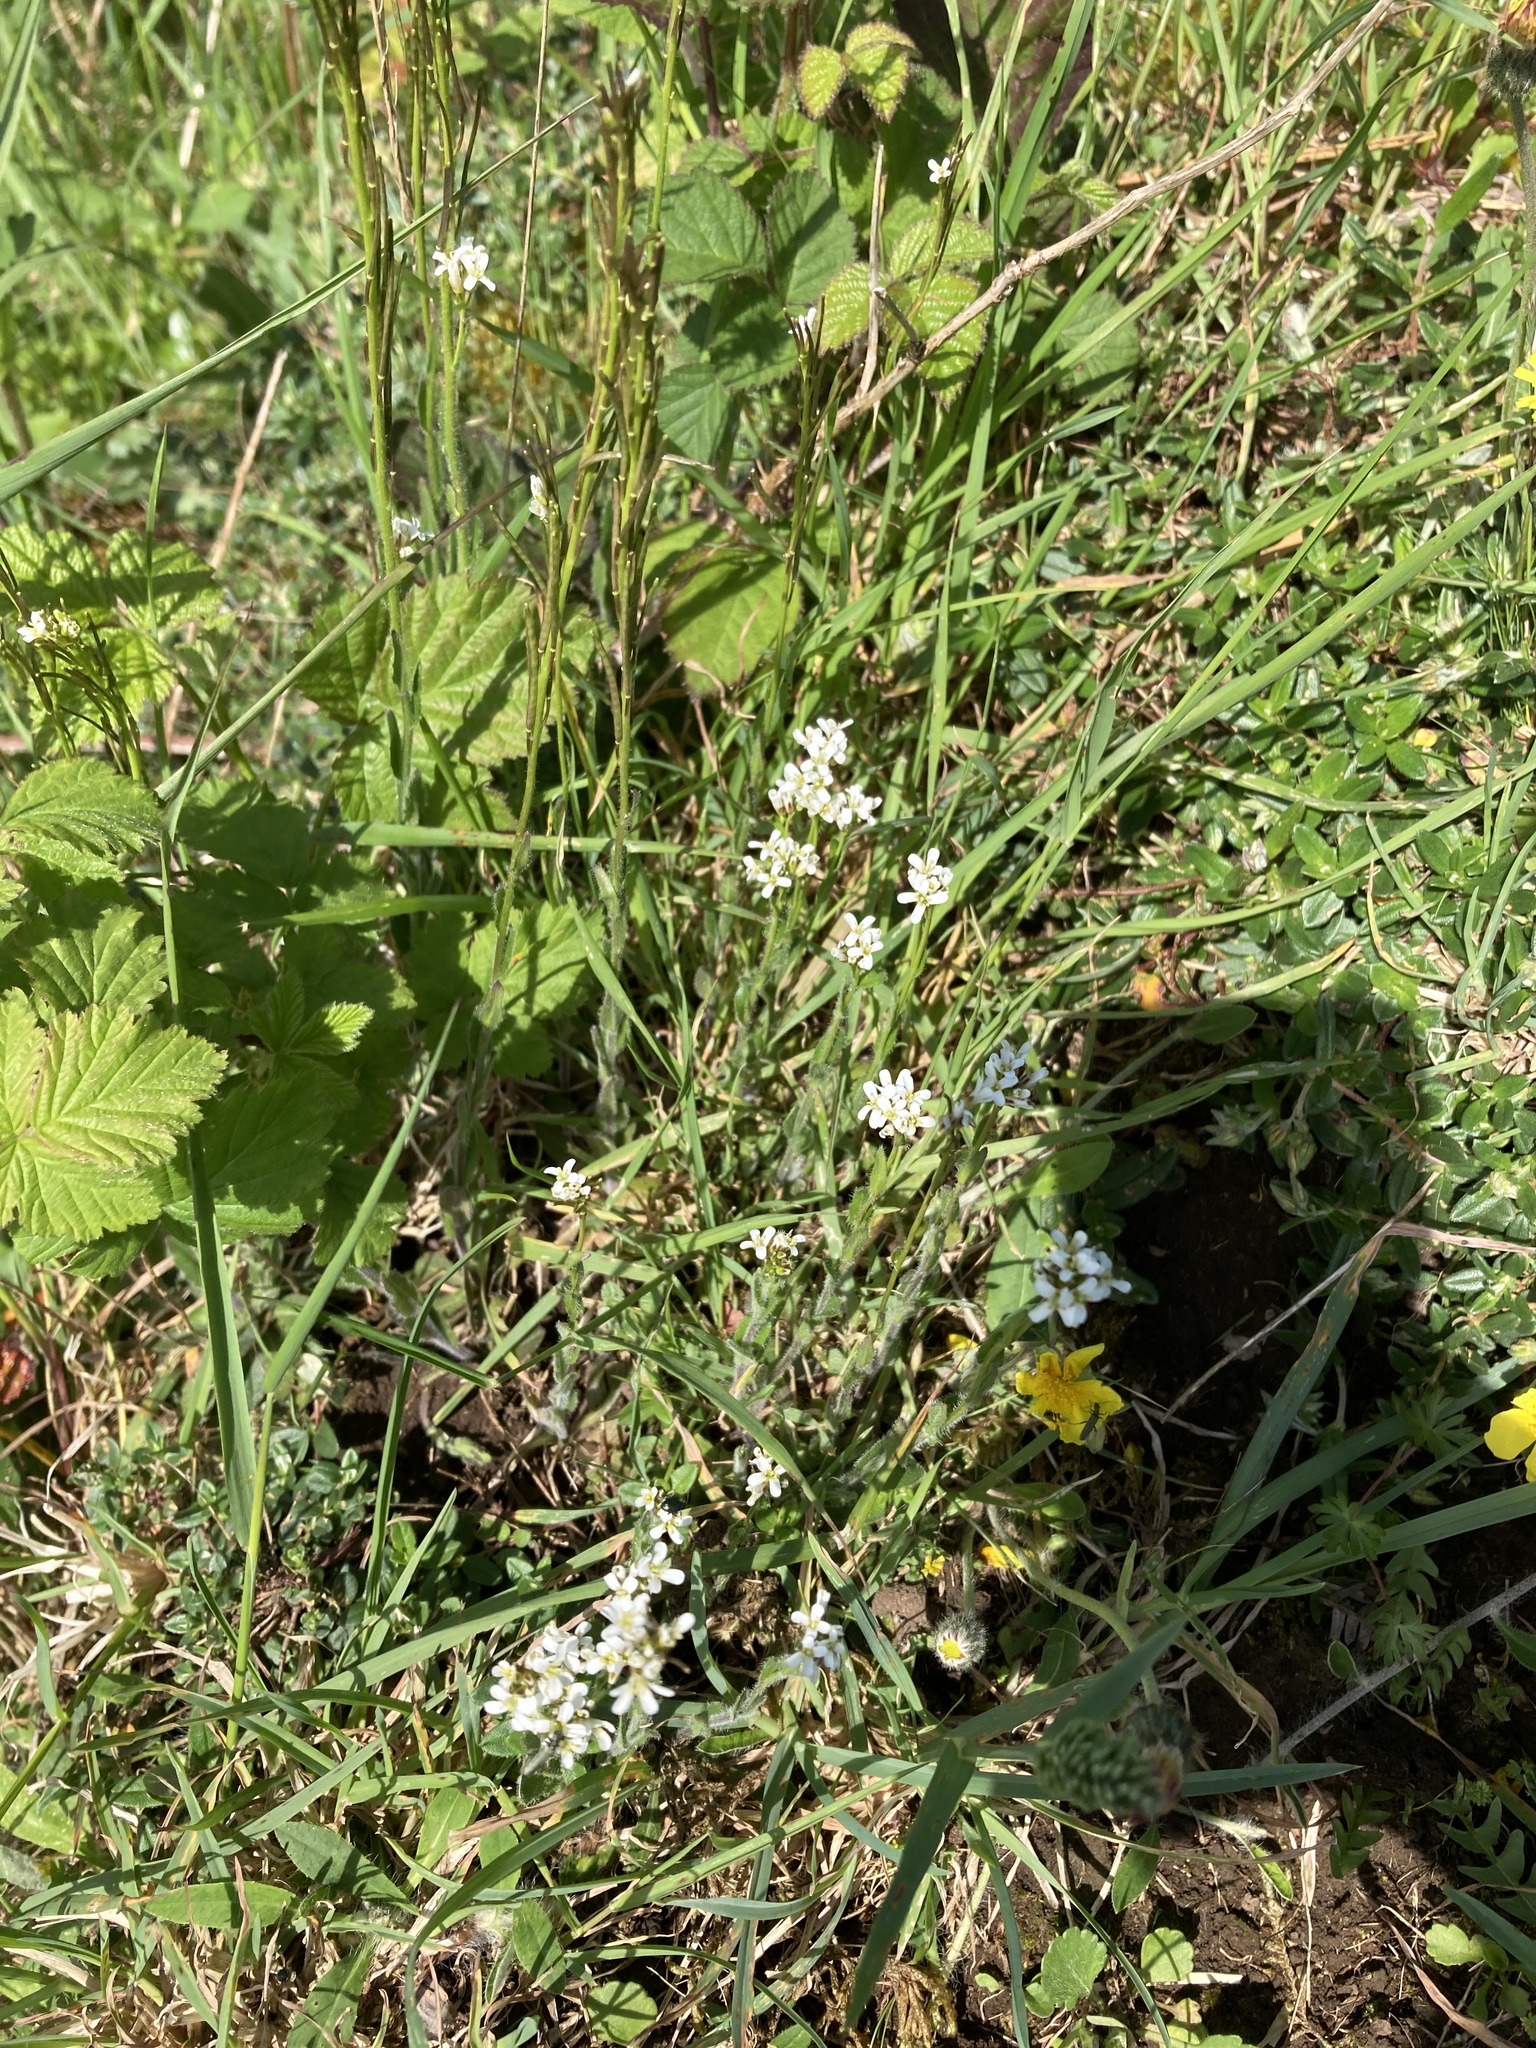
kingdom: Plantae
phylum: Tracheophyta
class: Magnoliopsida
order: Brassicales
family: Brassicaceae
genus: Arabis
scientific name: Arabis hirsuta
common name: Hairy rock-cress
